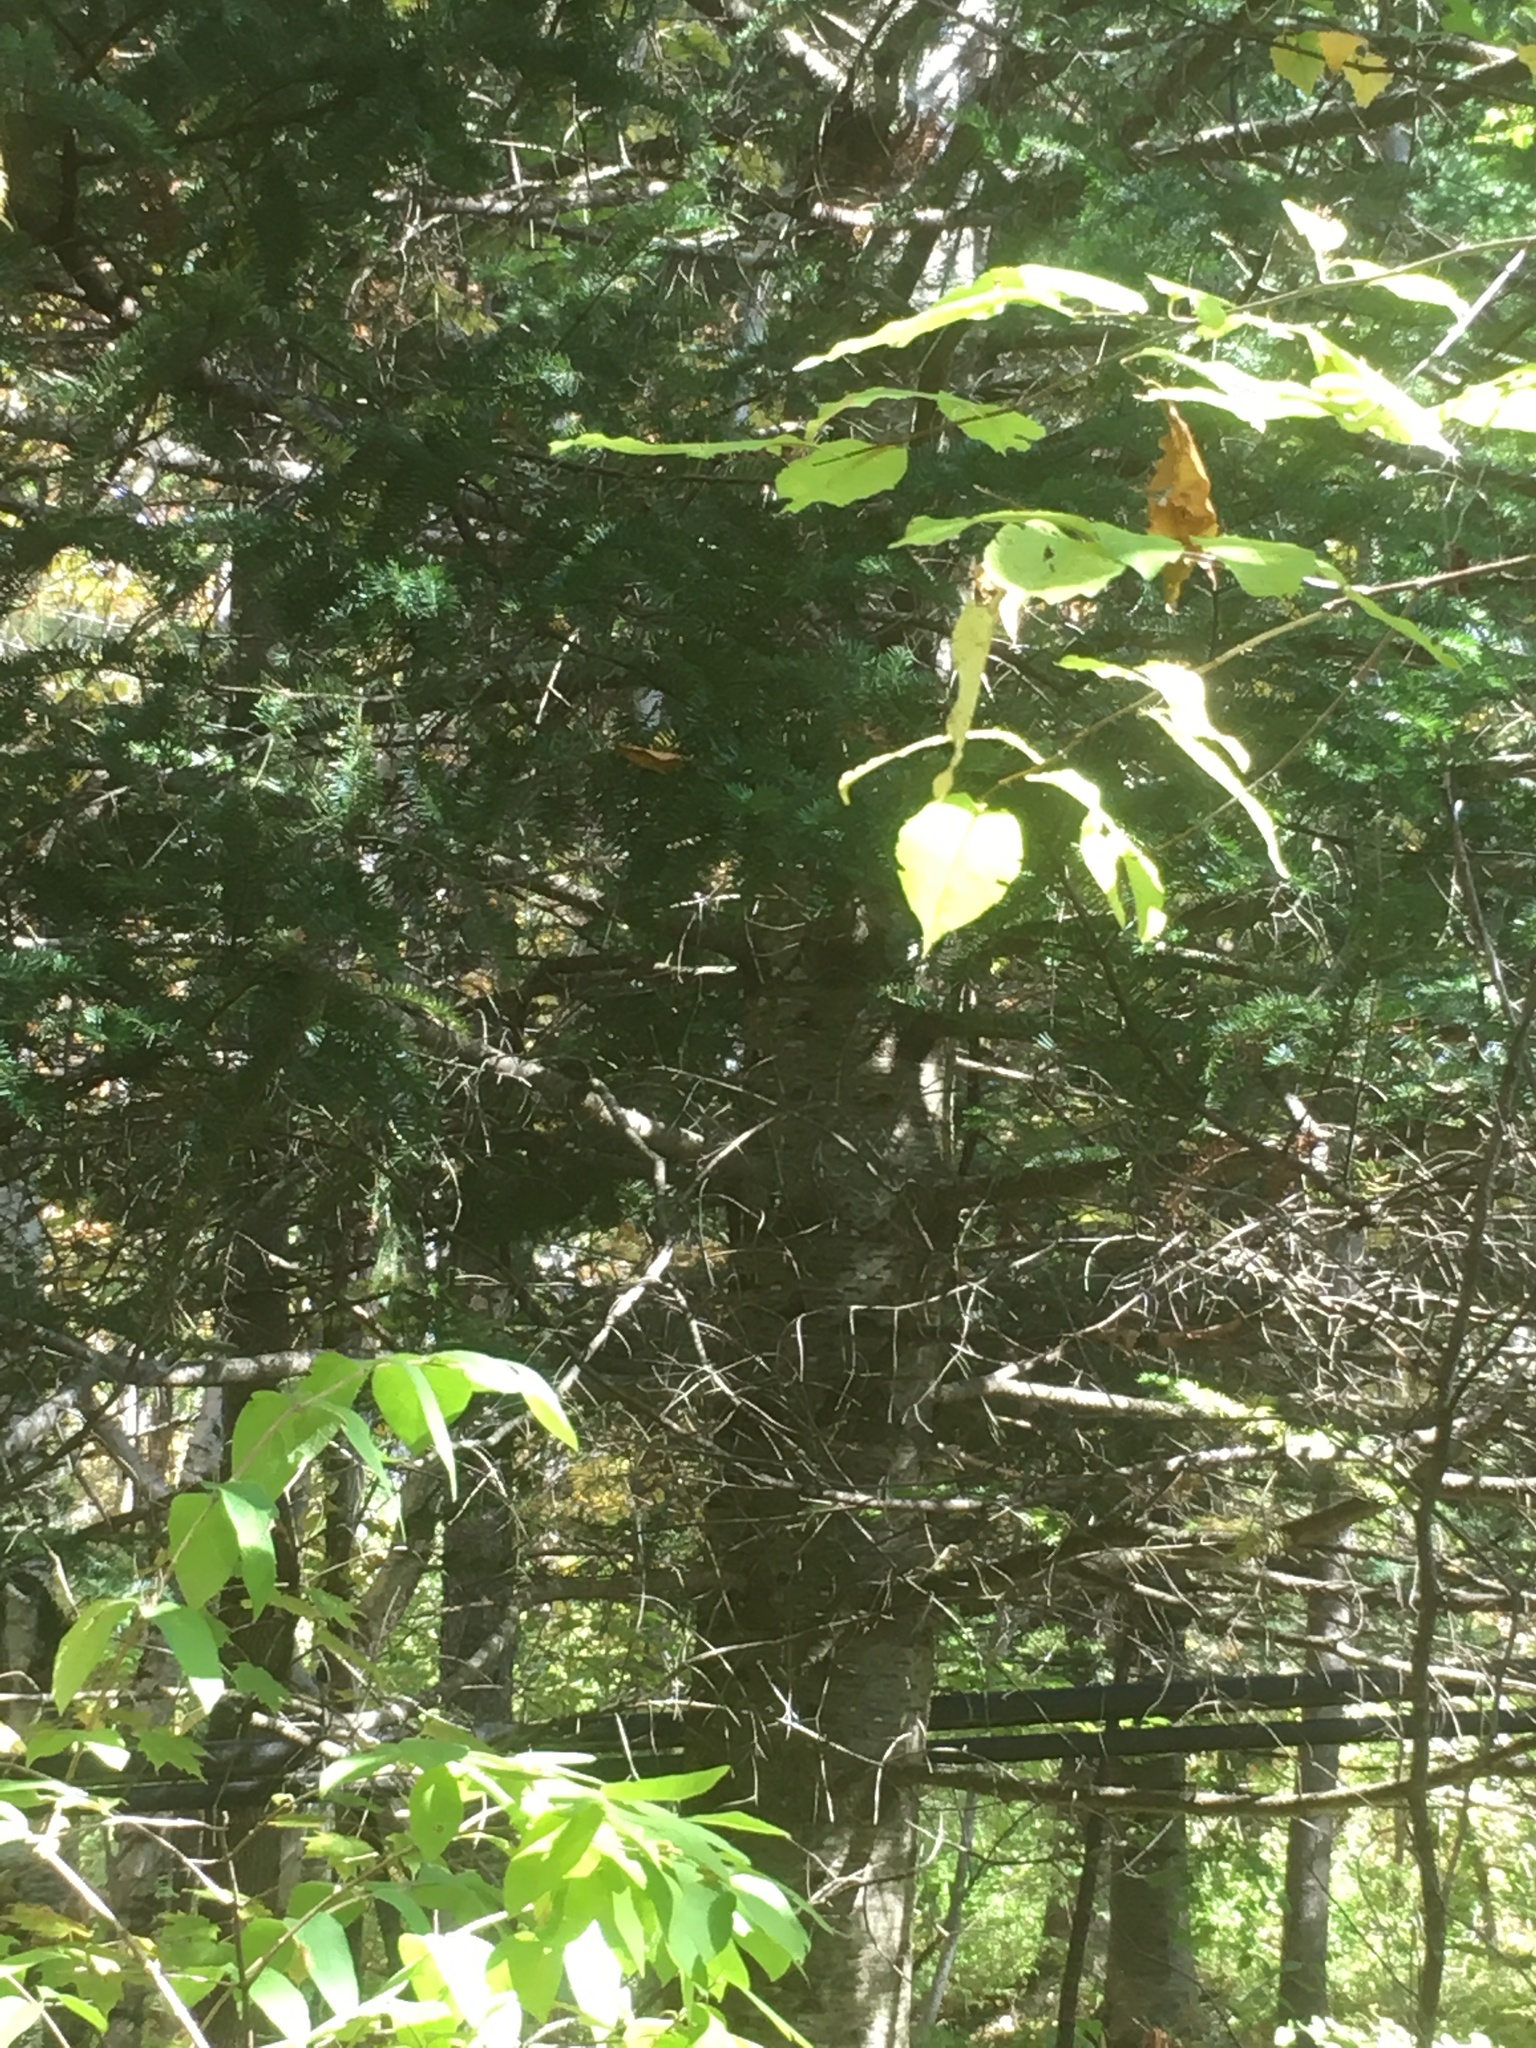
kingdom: Plantae
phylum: Tracheophyta
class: Pinopsida
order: Pinales
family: Pinaceae
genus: Abies
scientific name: Abies balsamea
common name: Balsam fir
